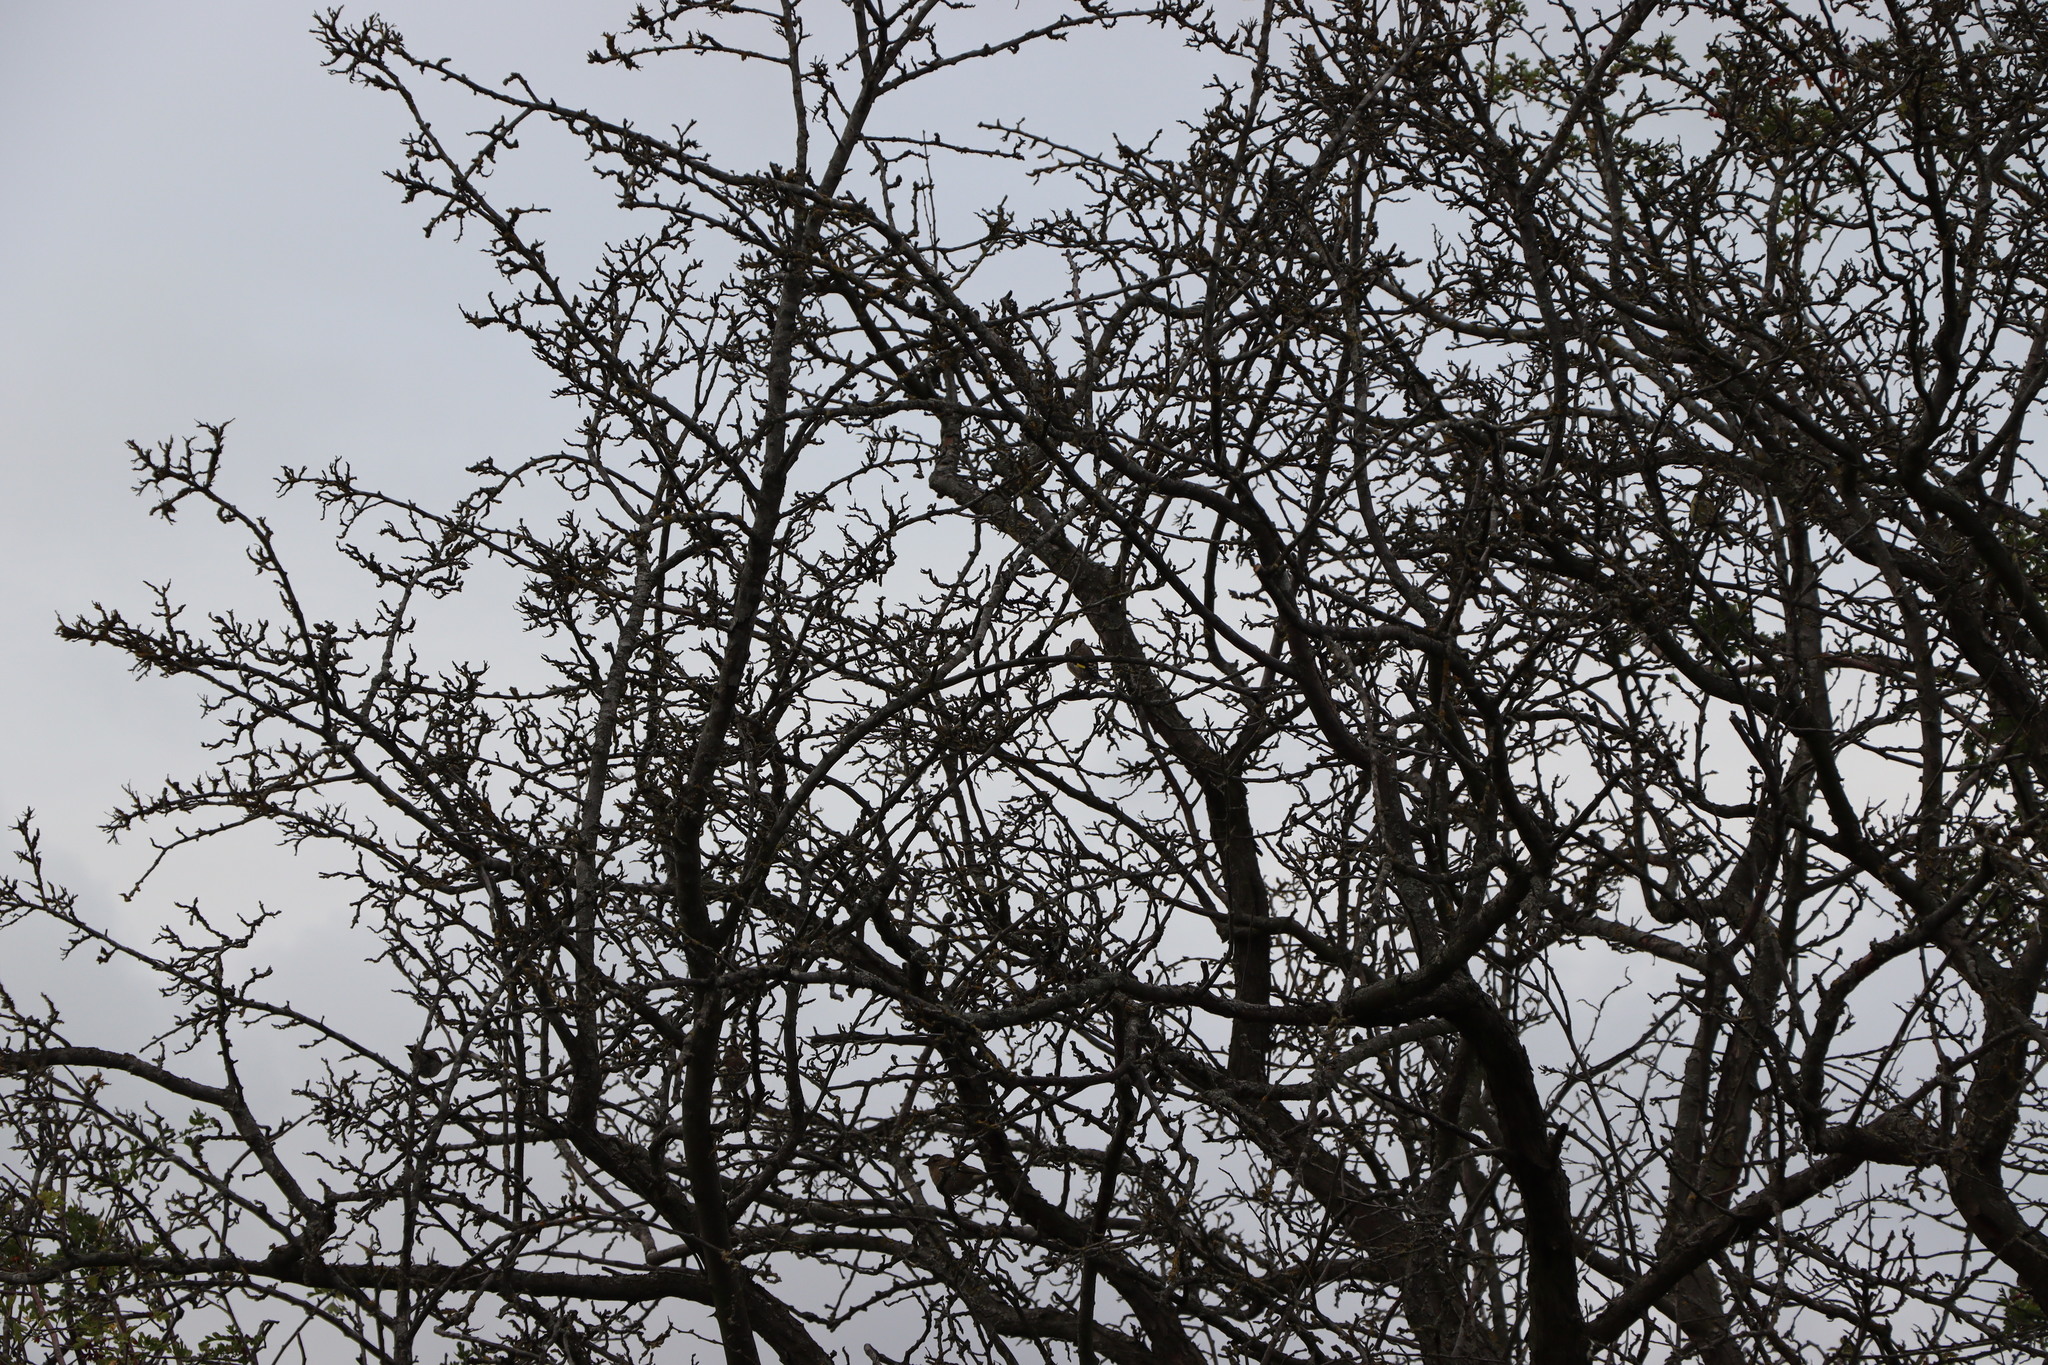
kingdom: Animalia
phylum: Chordata
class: Aves
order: Passeriformes
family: Fringillidae
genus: Carduelis
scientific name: Carduelis carduelis
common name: European goldfinch
